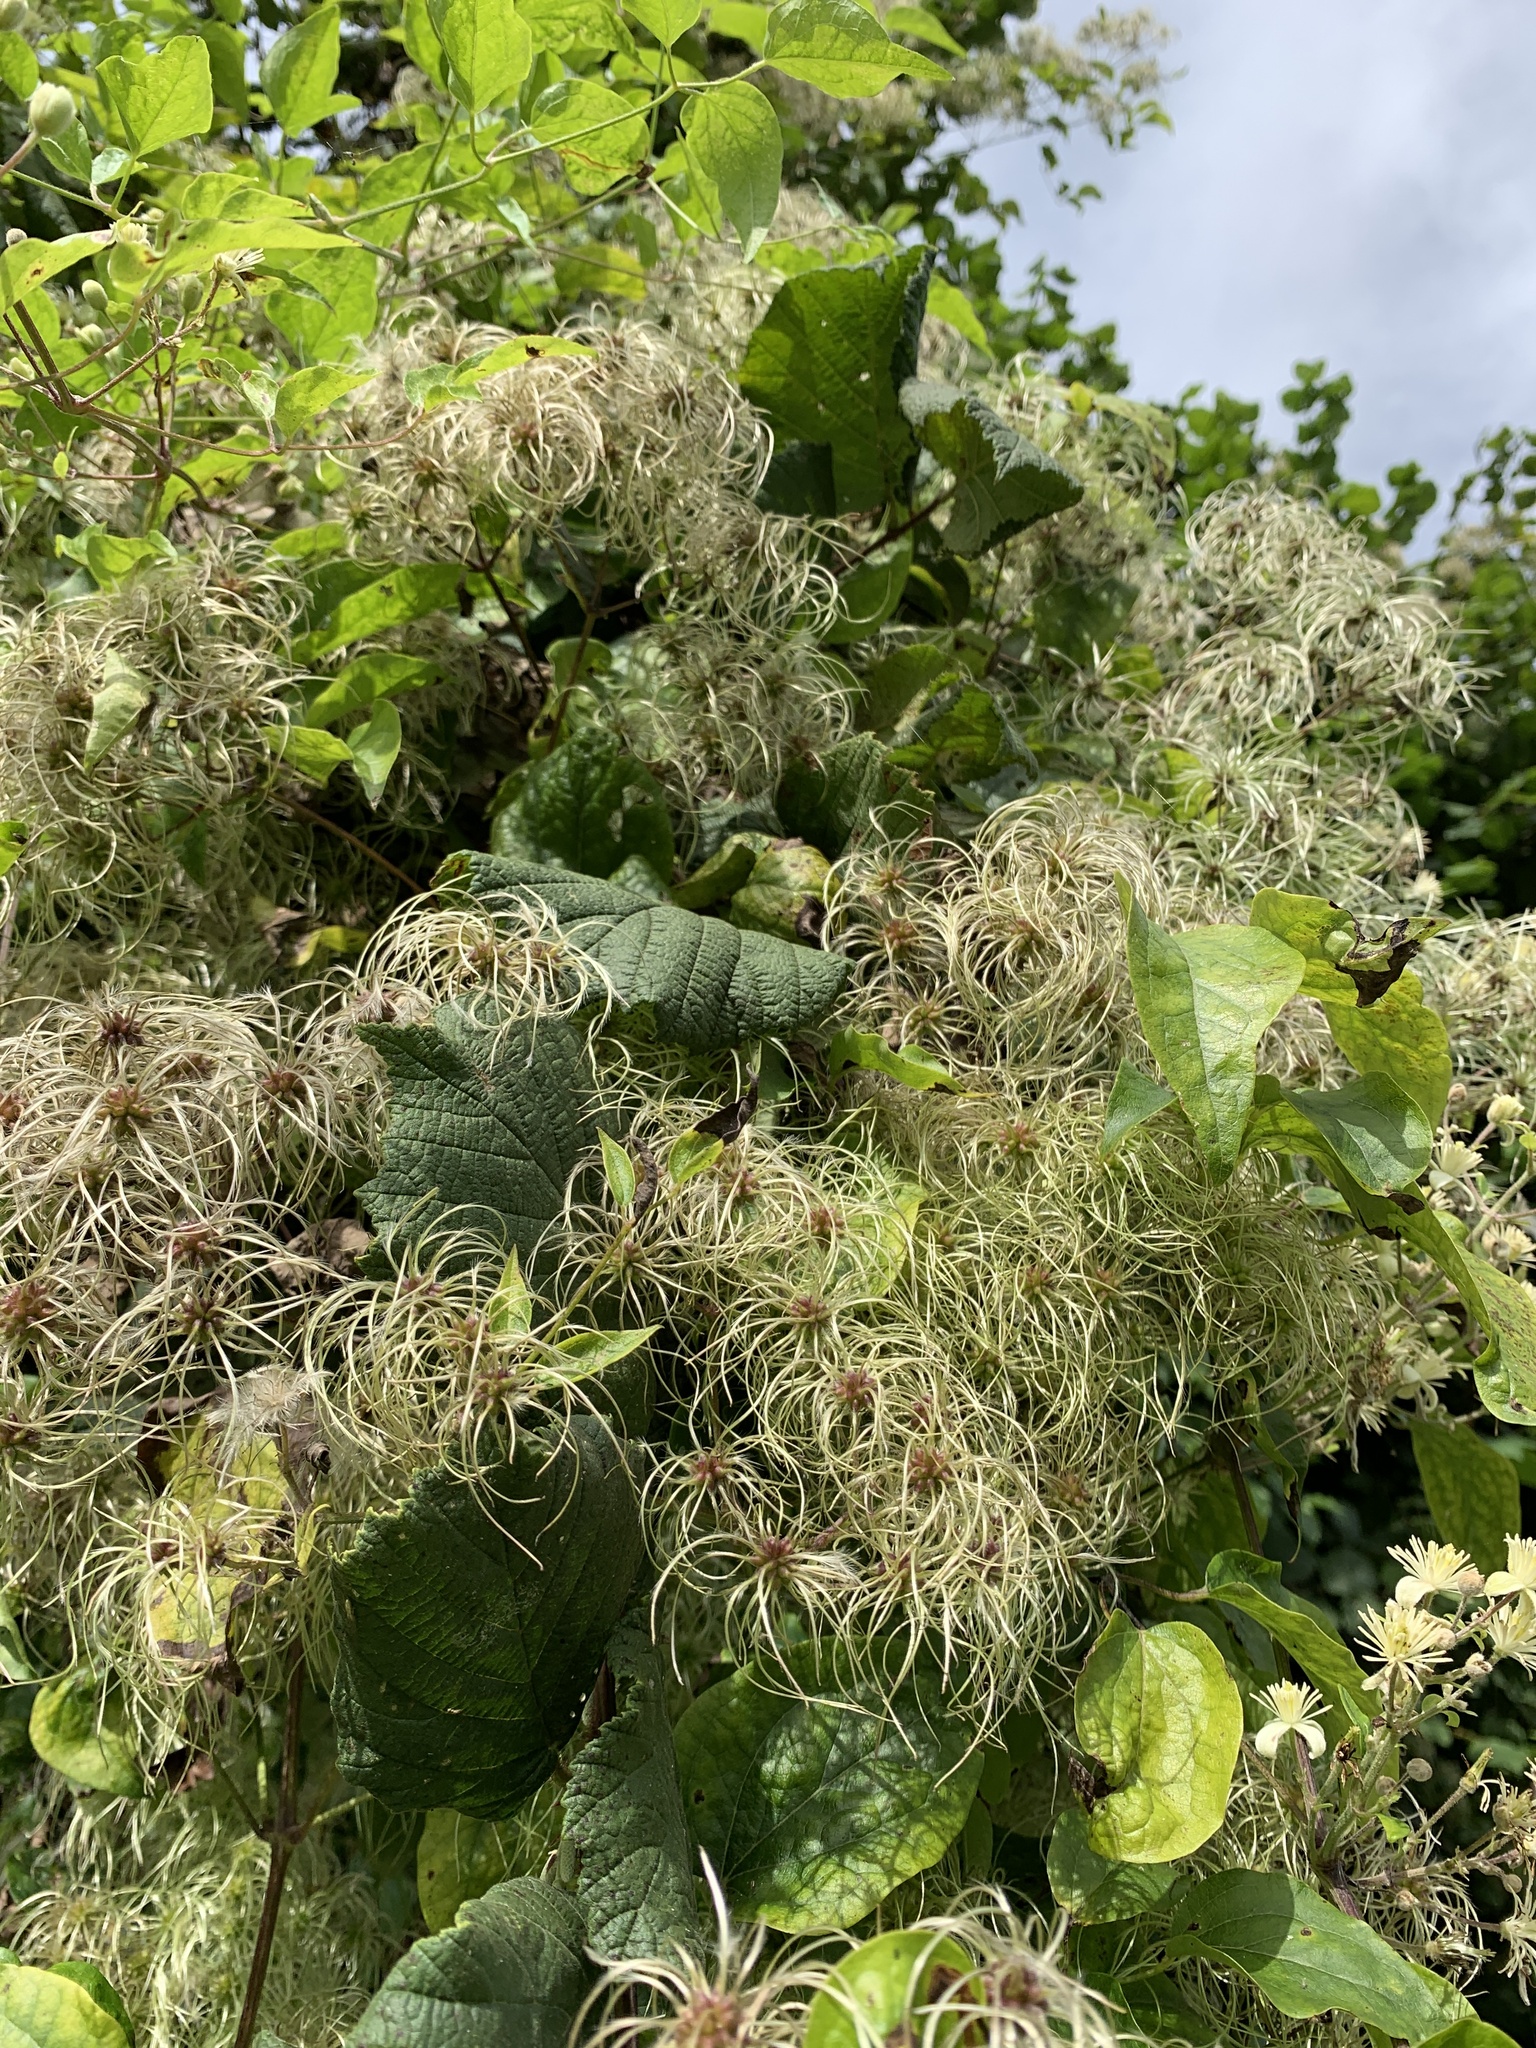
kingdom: Plantae
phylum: Tracheophyta
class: Magnoliopsida
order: Ranunculales
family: Ranunculaceae
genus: Clematis
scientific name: Clematis vitalba
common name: Evergreen clematis
